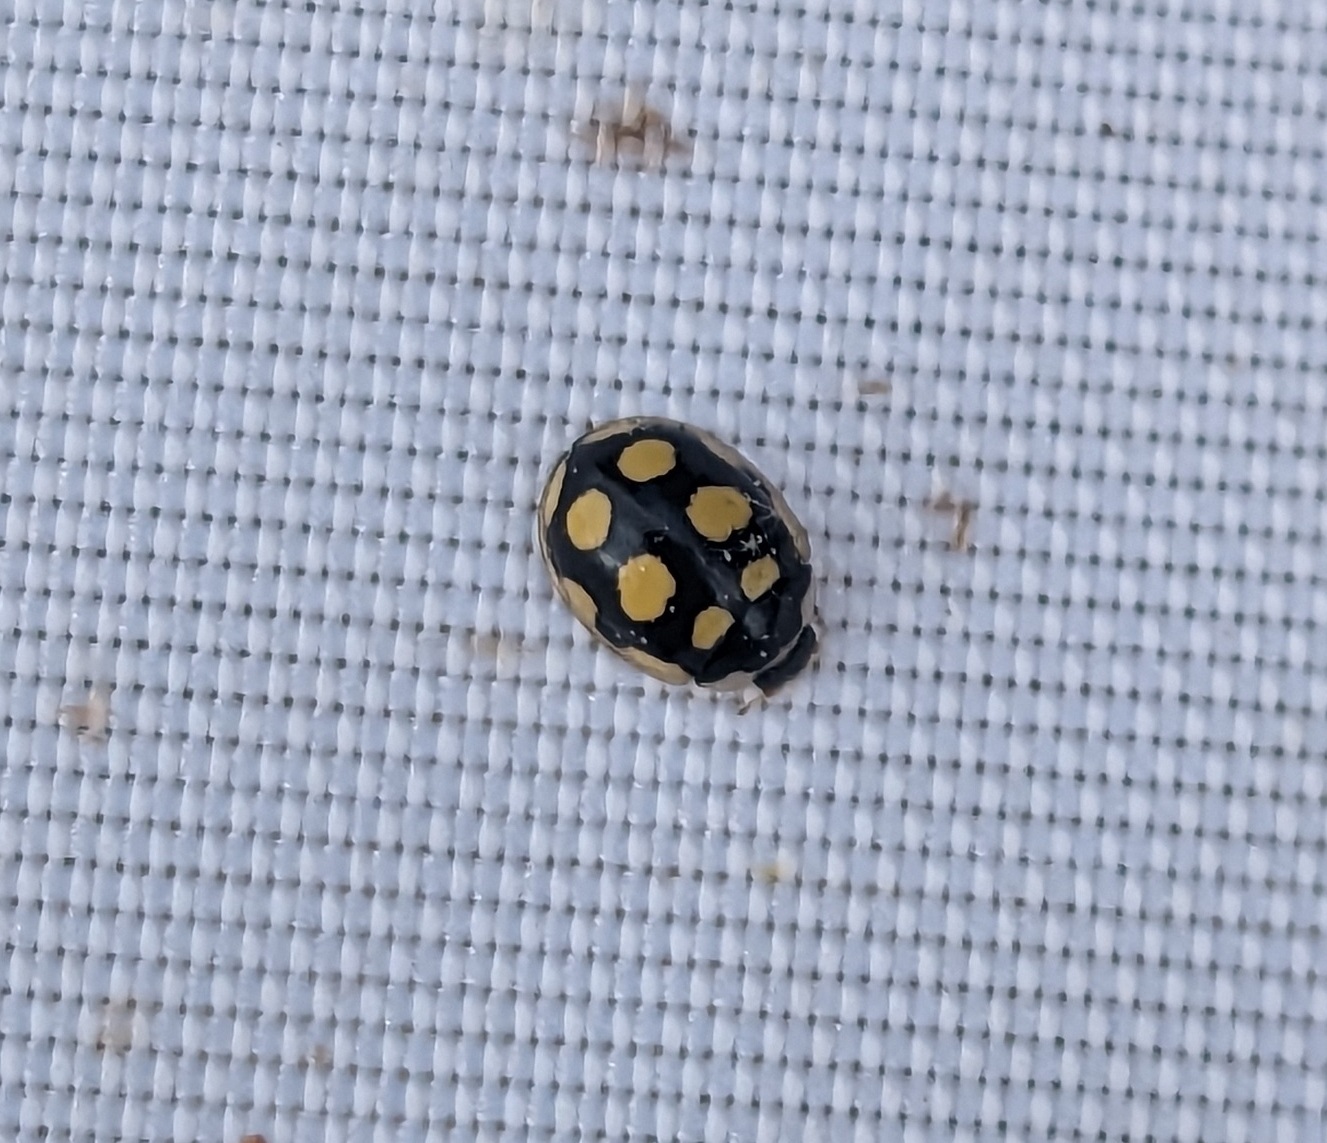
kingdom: Animalia
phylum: Arthropoda
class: Insecta
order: Coleoptera
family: Coccinellidae
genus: Oenopia
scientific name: Oenopia lyncea
